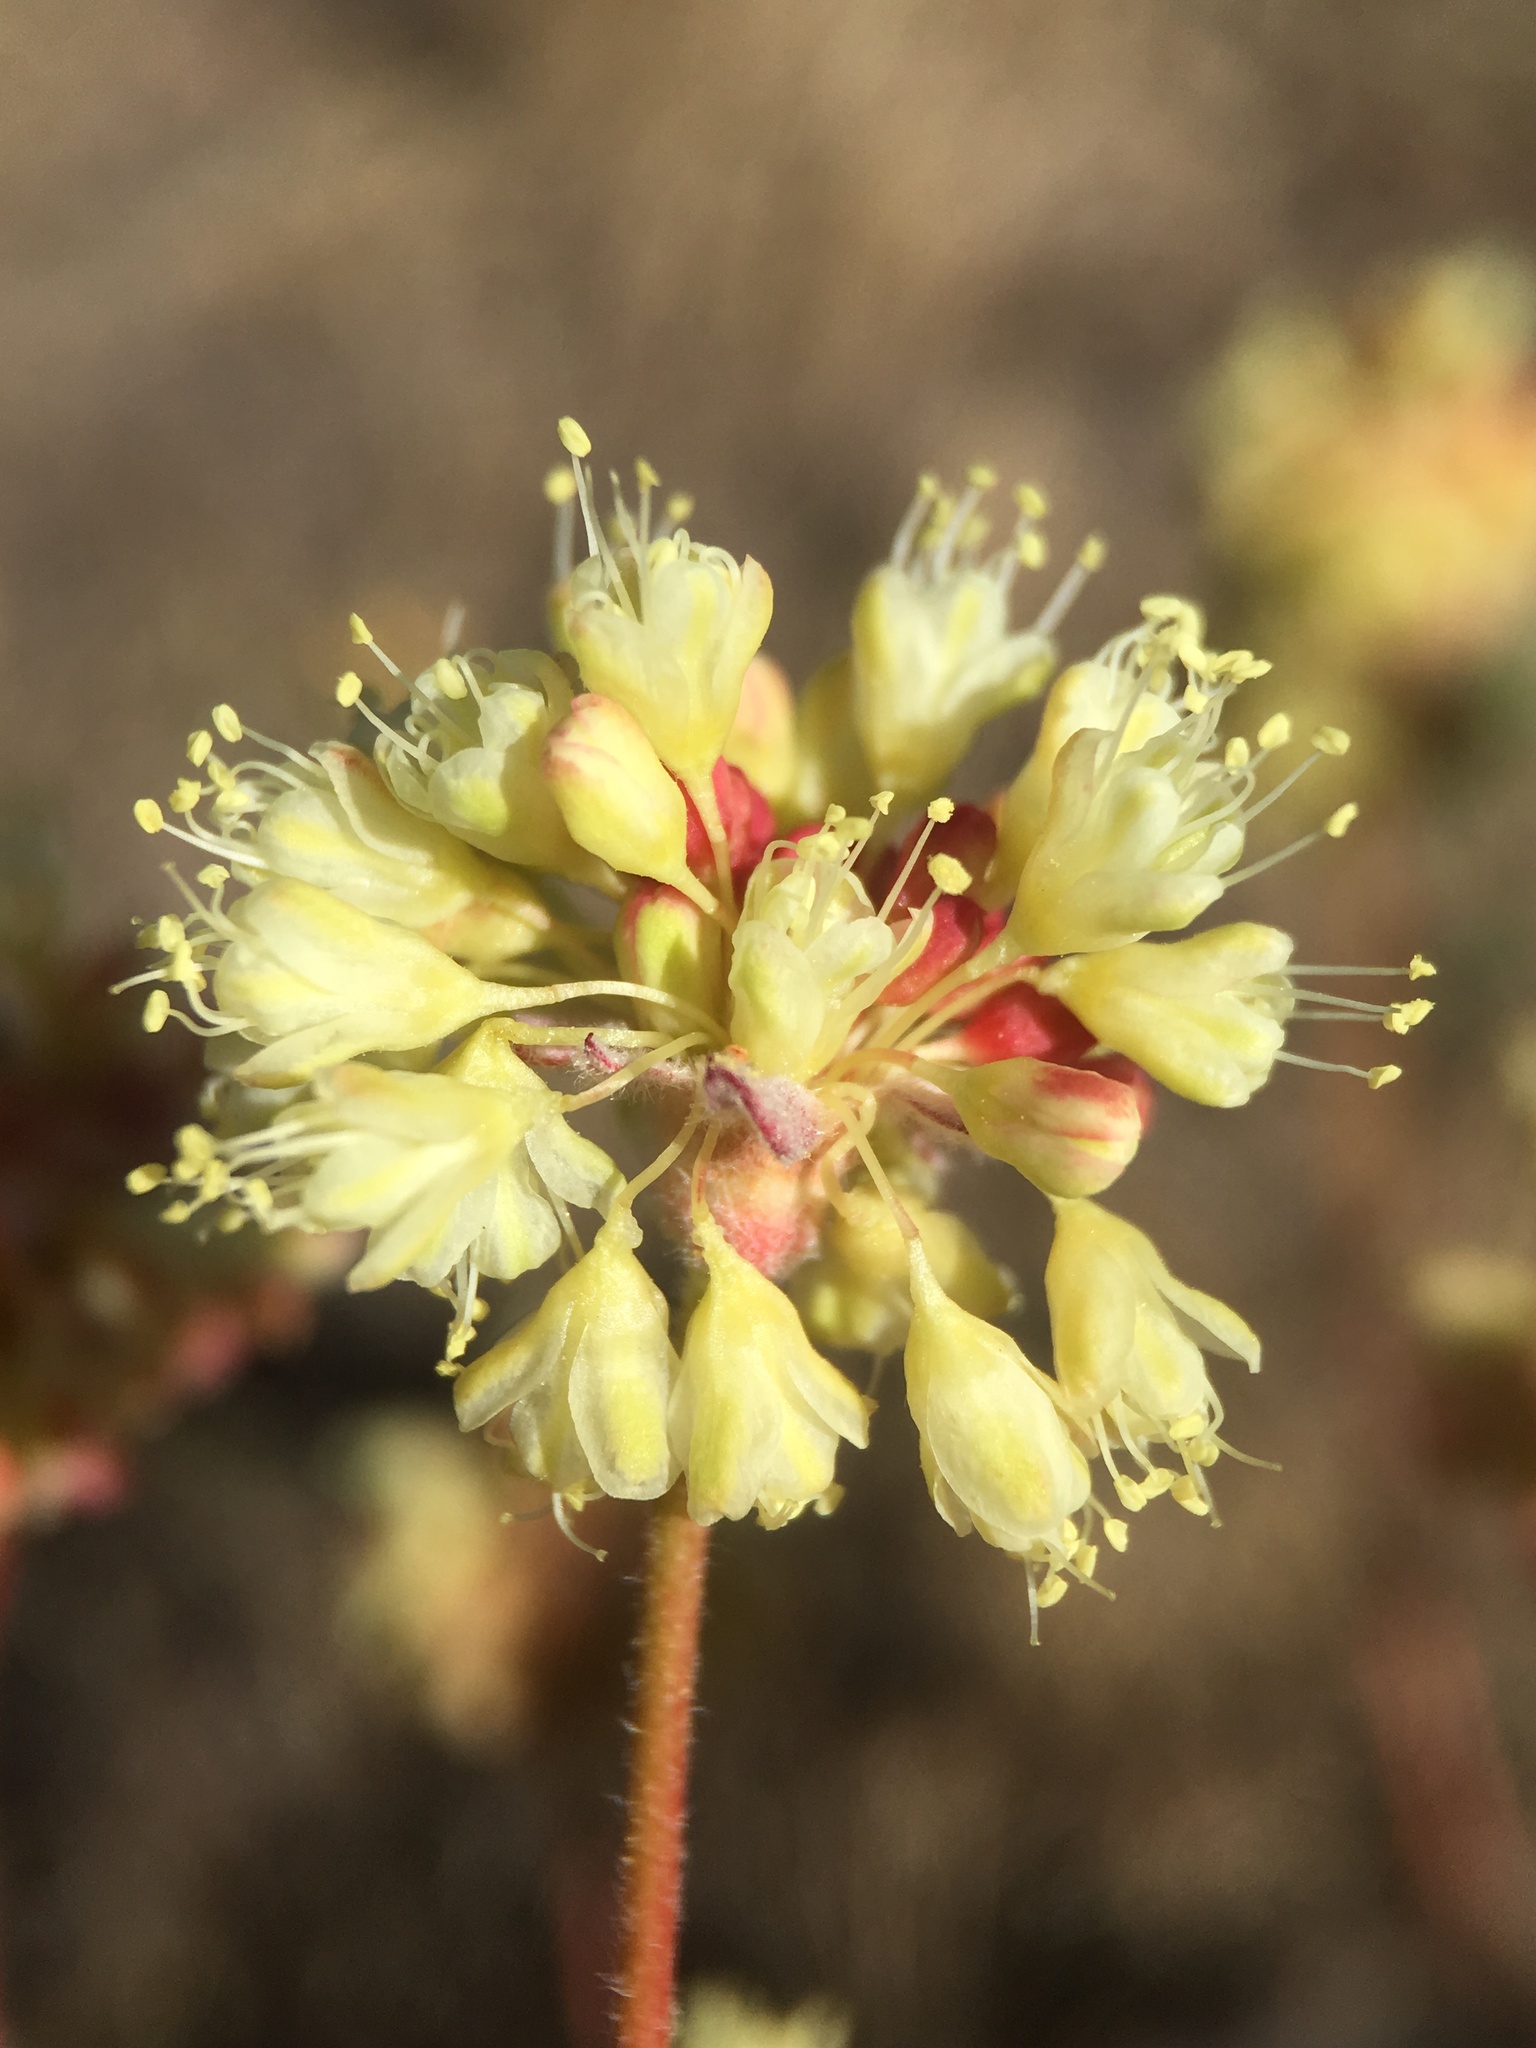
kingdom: Plantae
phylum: Tracheophyta
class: Magnoliopsida
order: Caryophyllales
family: Polygonaceae
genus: Eriogonum
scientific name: Eriogonum prattenianum
